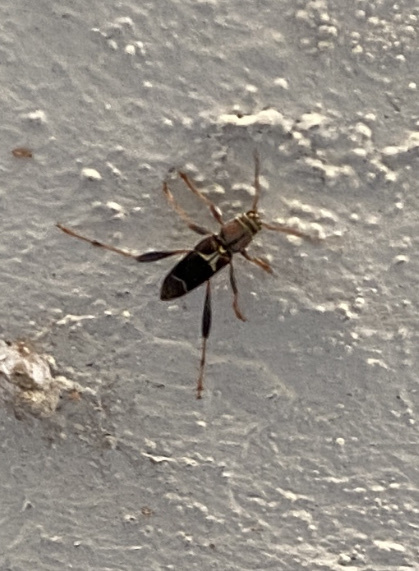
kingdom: Animalia
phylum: Arthropoda
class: Insecta
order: Coleoptera
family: Cerambycidae
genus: Neoclytus
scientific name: Neoclytus mucronatus
